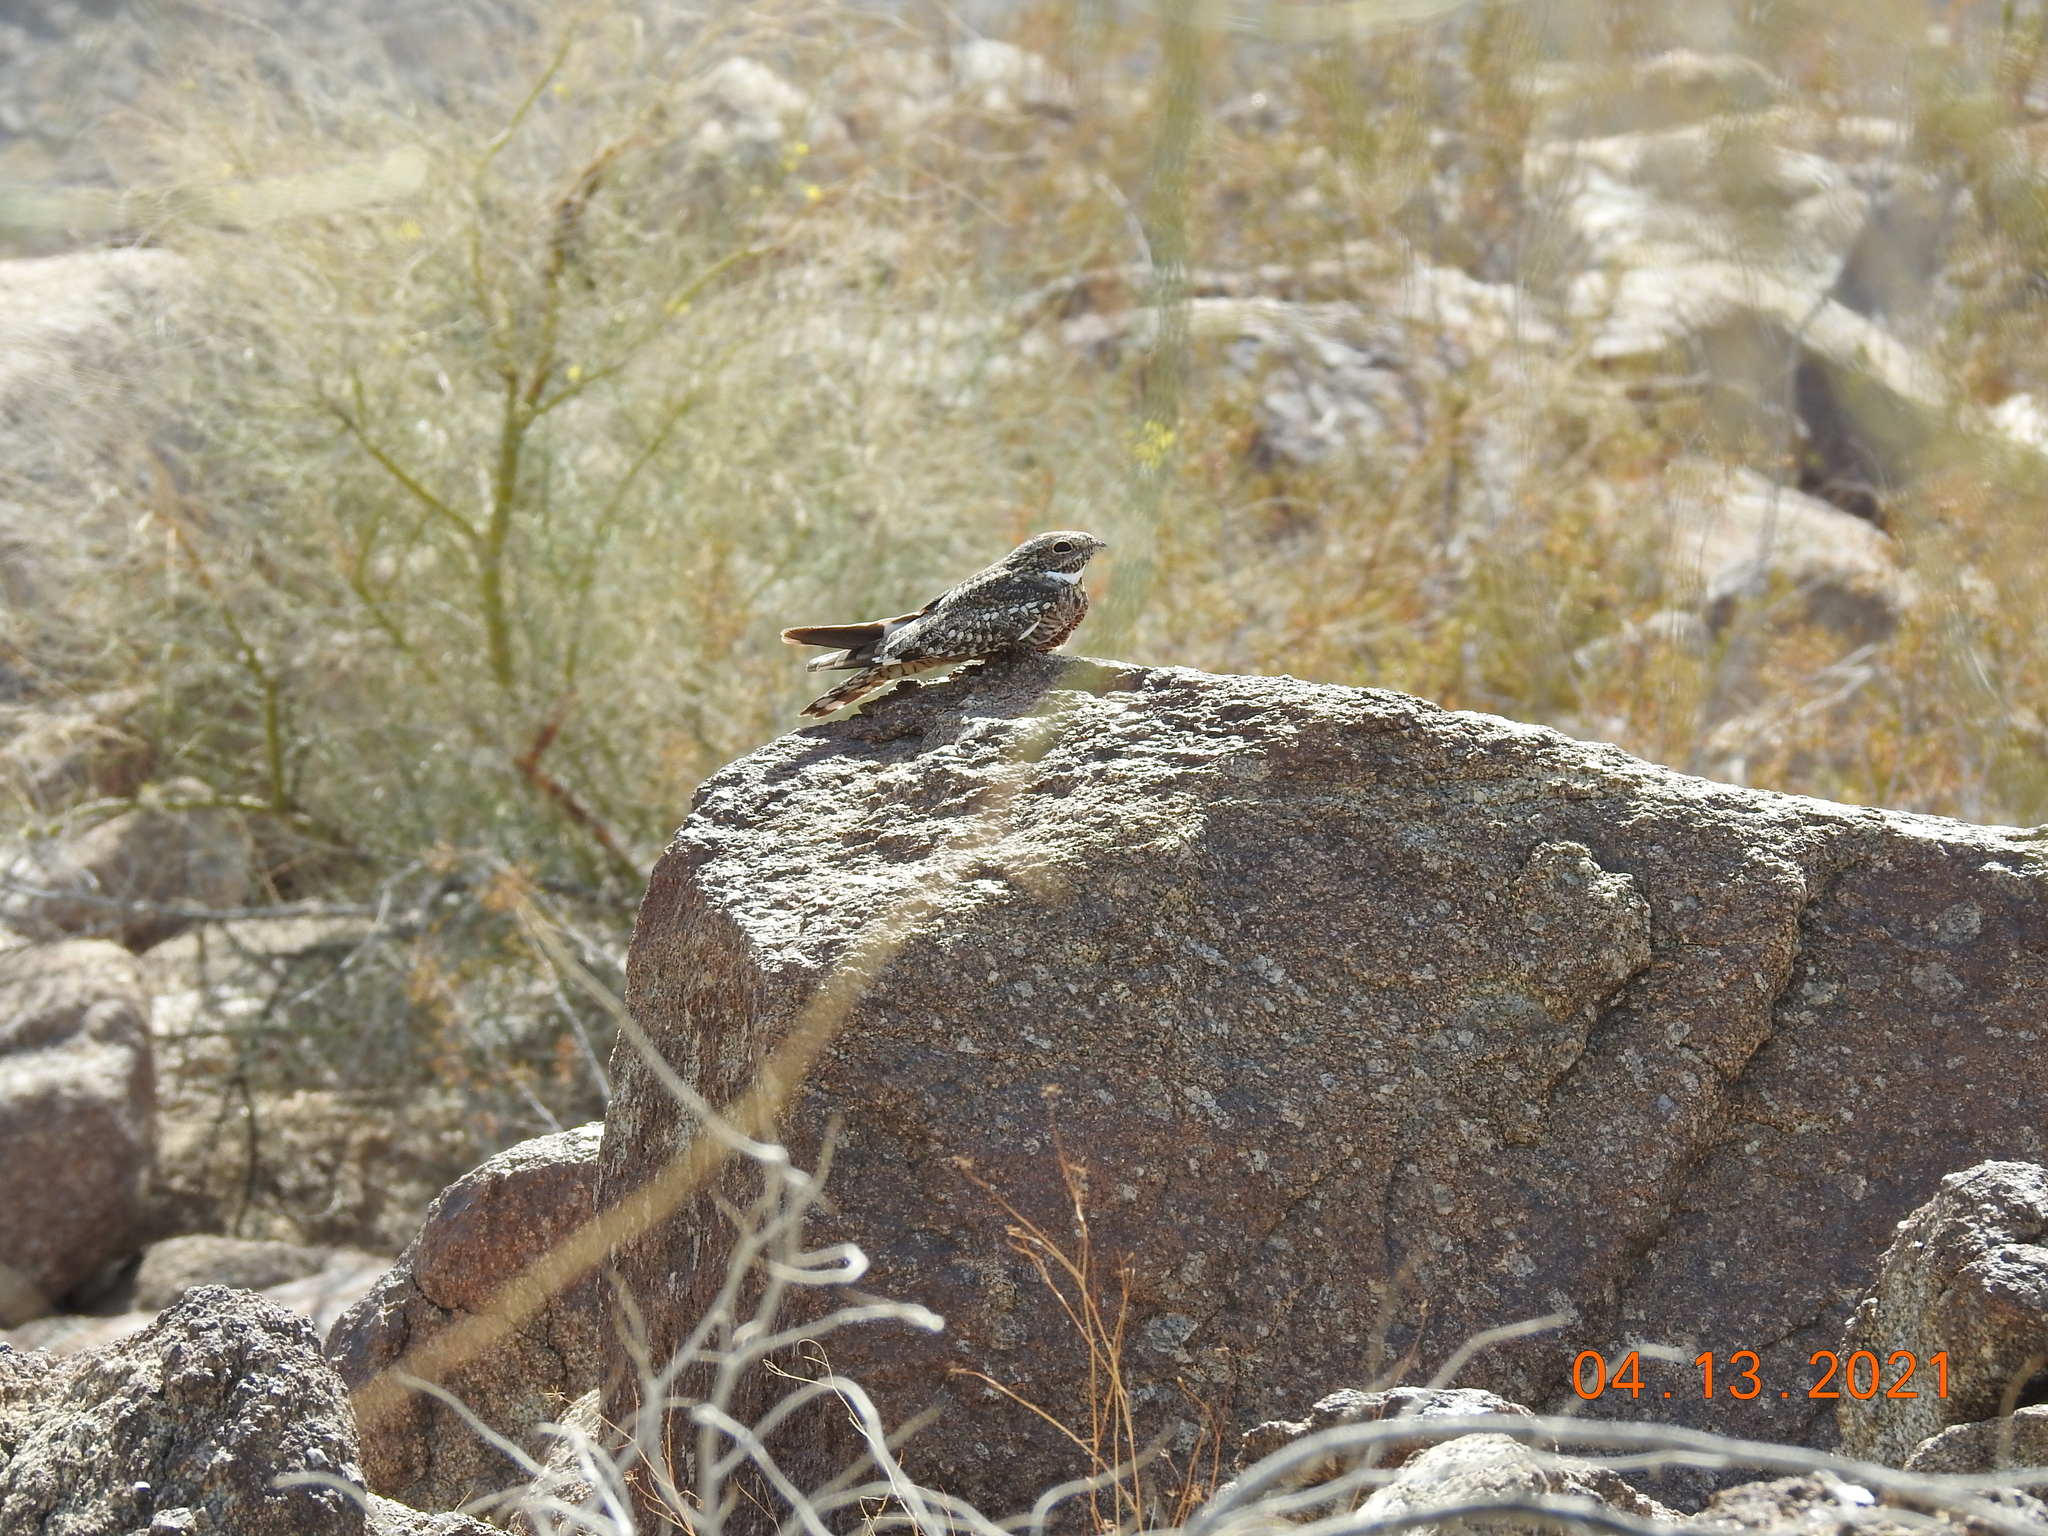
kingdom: Animalia
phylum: Chordata
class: Aves
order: Caprimulgiformes
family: Caprimulgidae
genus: Chordeiles
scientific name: Chordeiles acutipennis
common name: Lesser nighthawk
